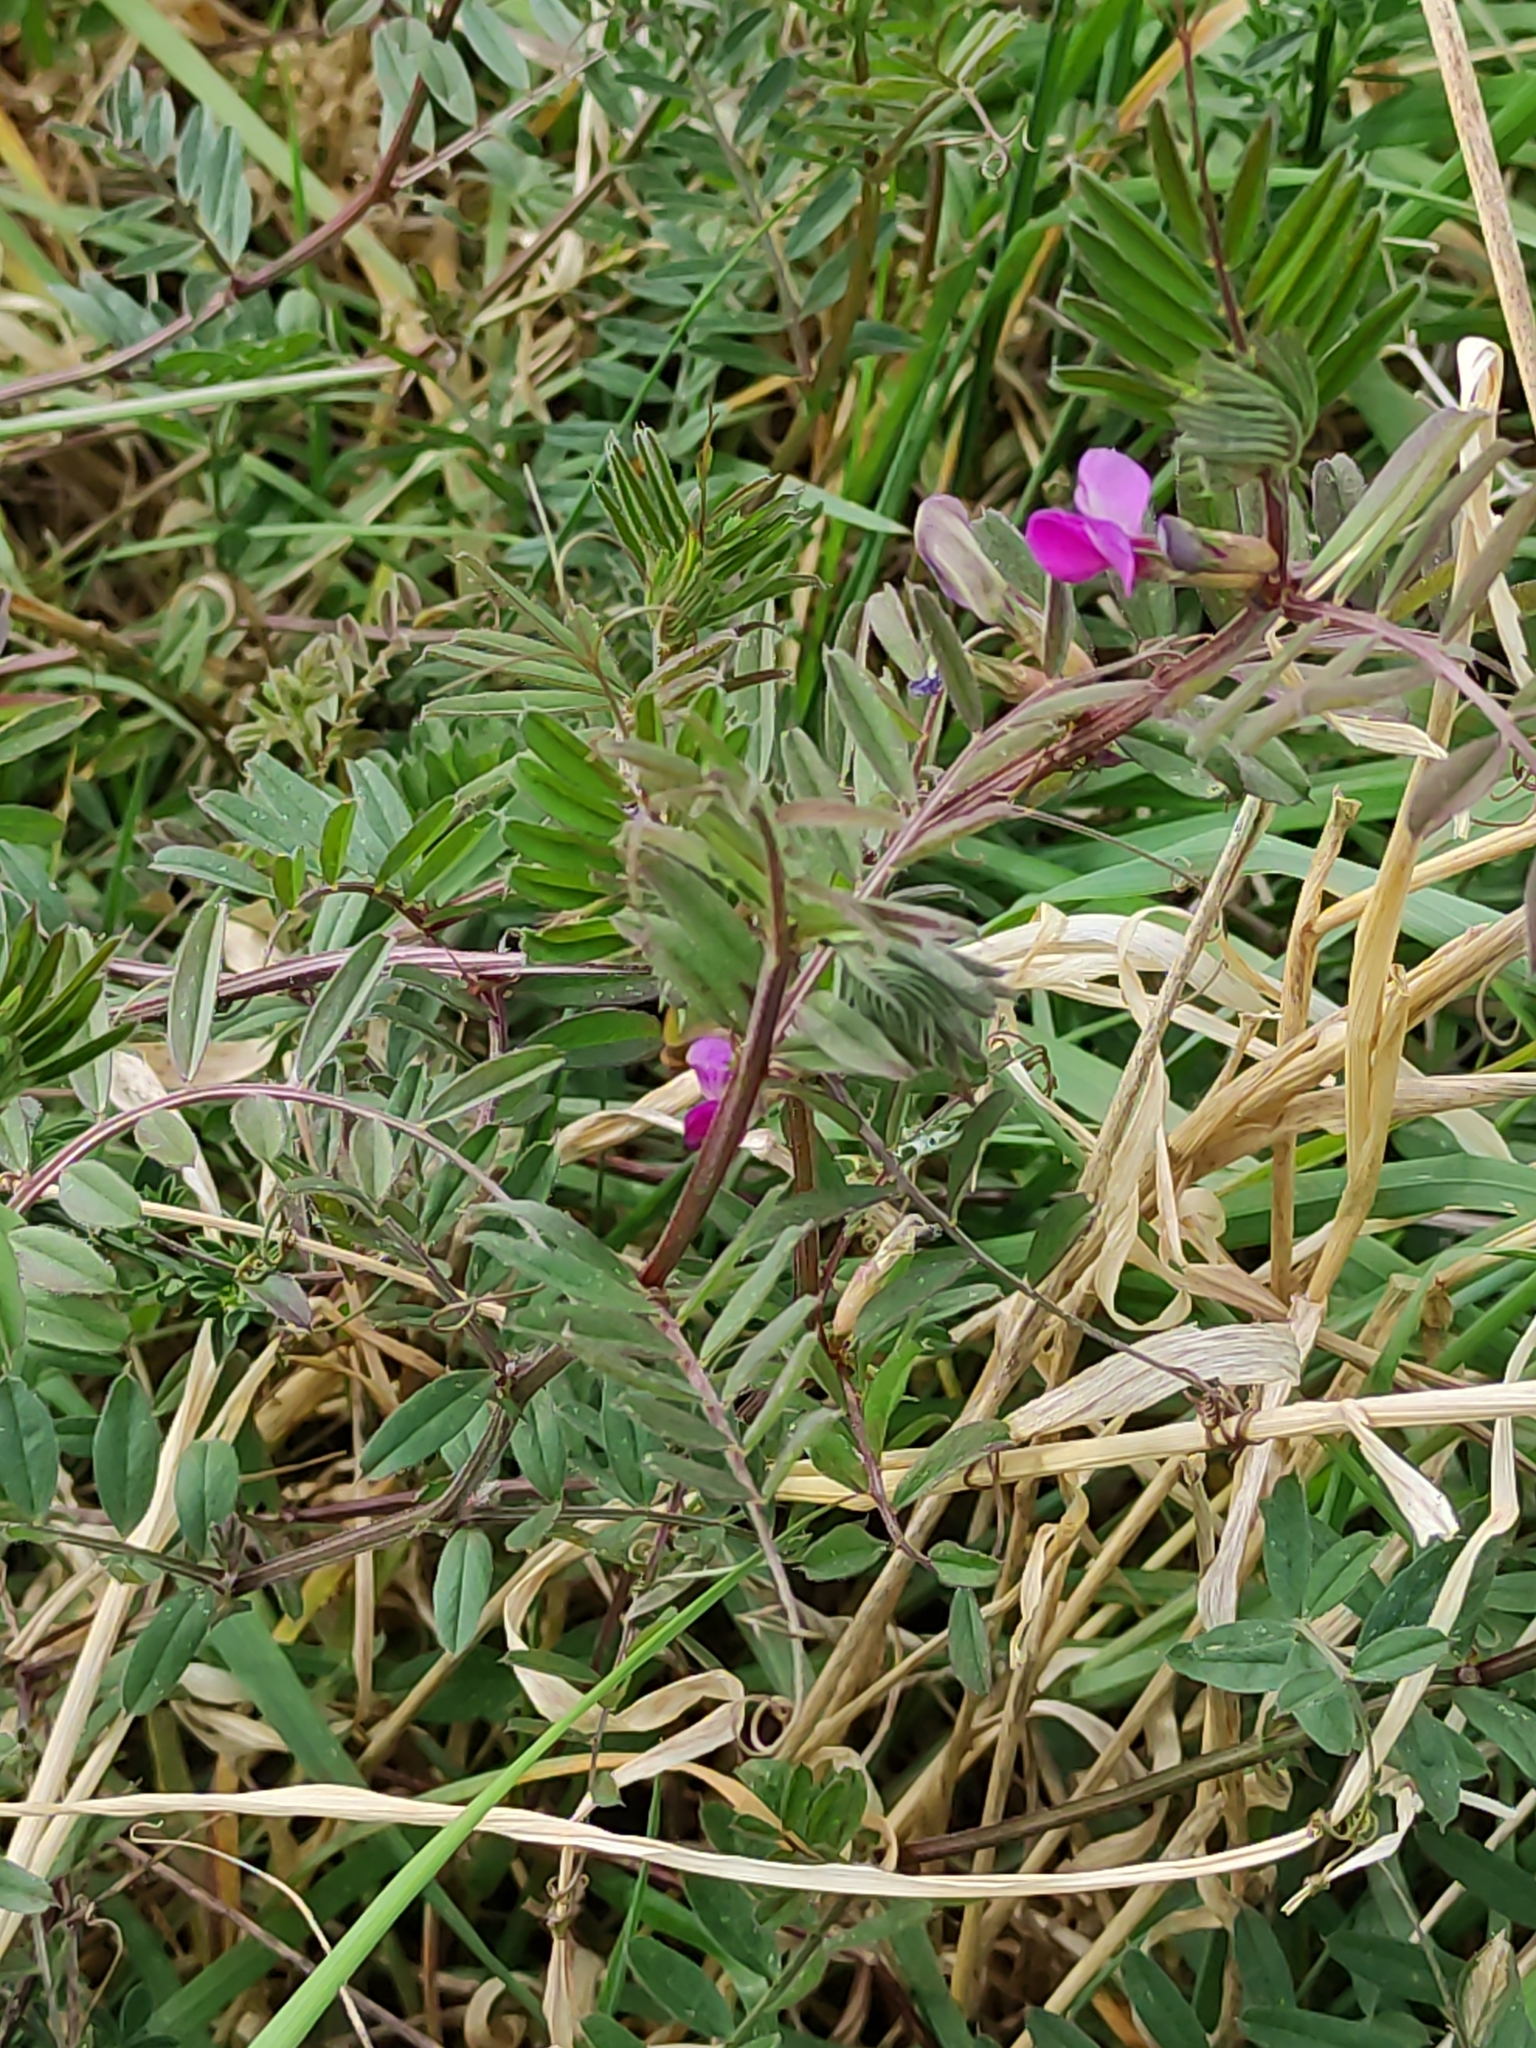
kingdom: Plantae
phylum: Tracheophyta
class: Magnoliopsida
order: Fabales
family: Fabaceae
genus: Vicia
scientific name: Vicia sativa
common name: Garden vetch
